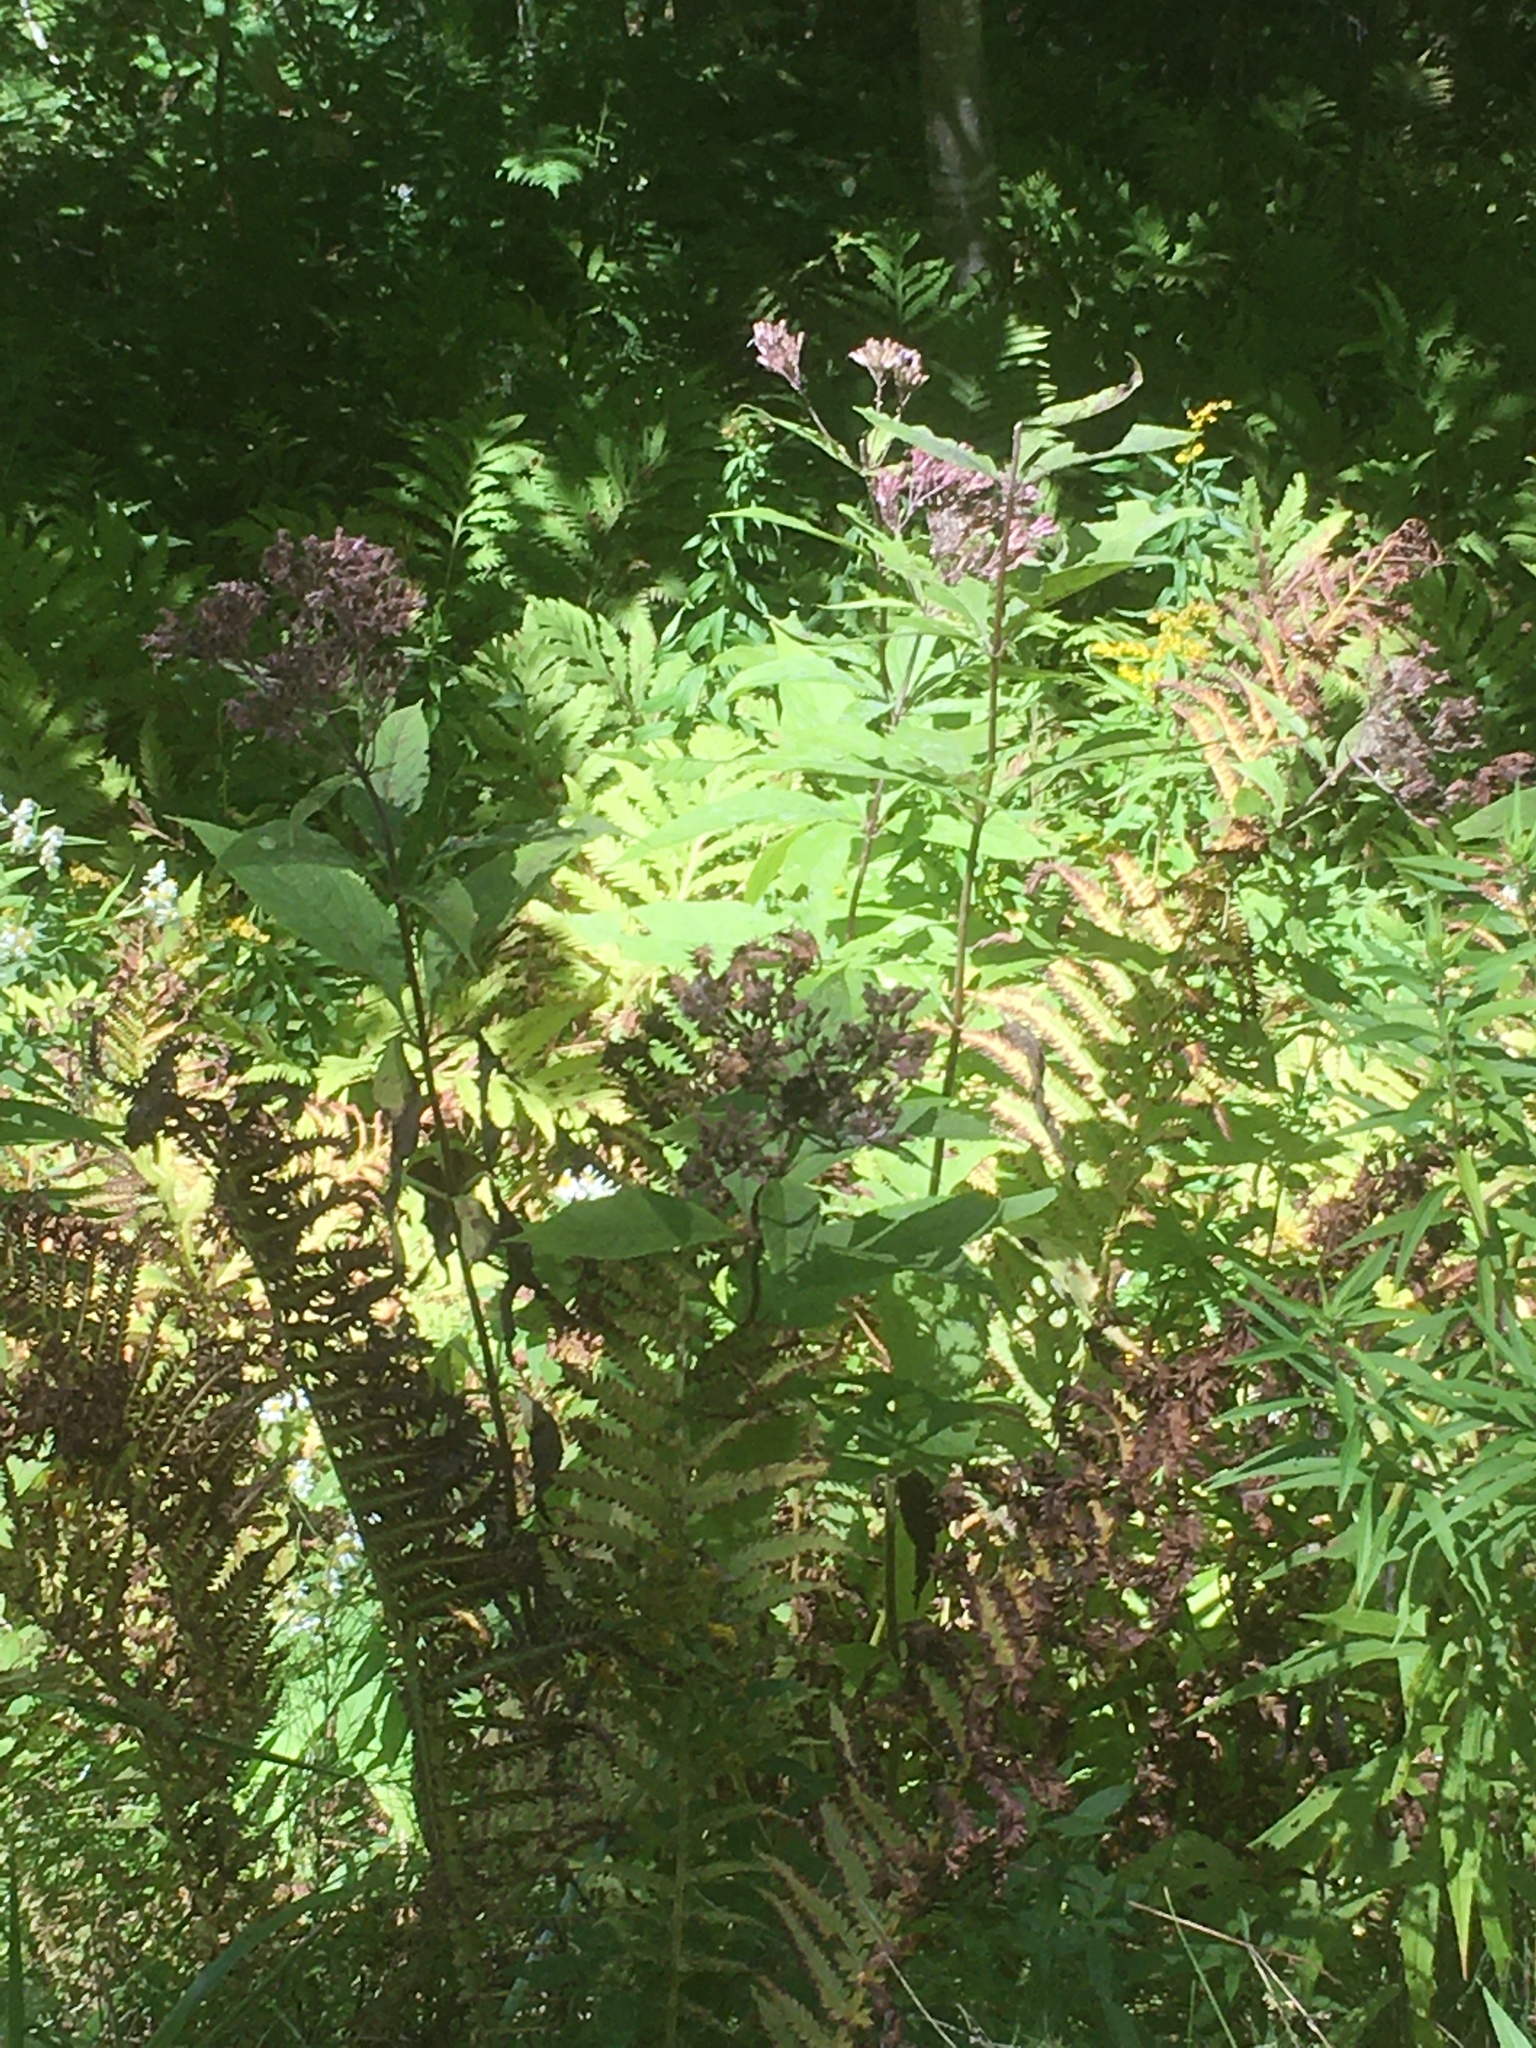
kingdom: Plantae
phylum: Tracheophyta
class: Polypodiopsida
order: Polypodiales
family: Onocleaceae
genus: Onoclea
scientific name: Onoclea sensibilis
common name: Sensitive fern
